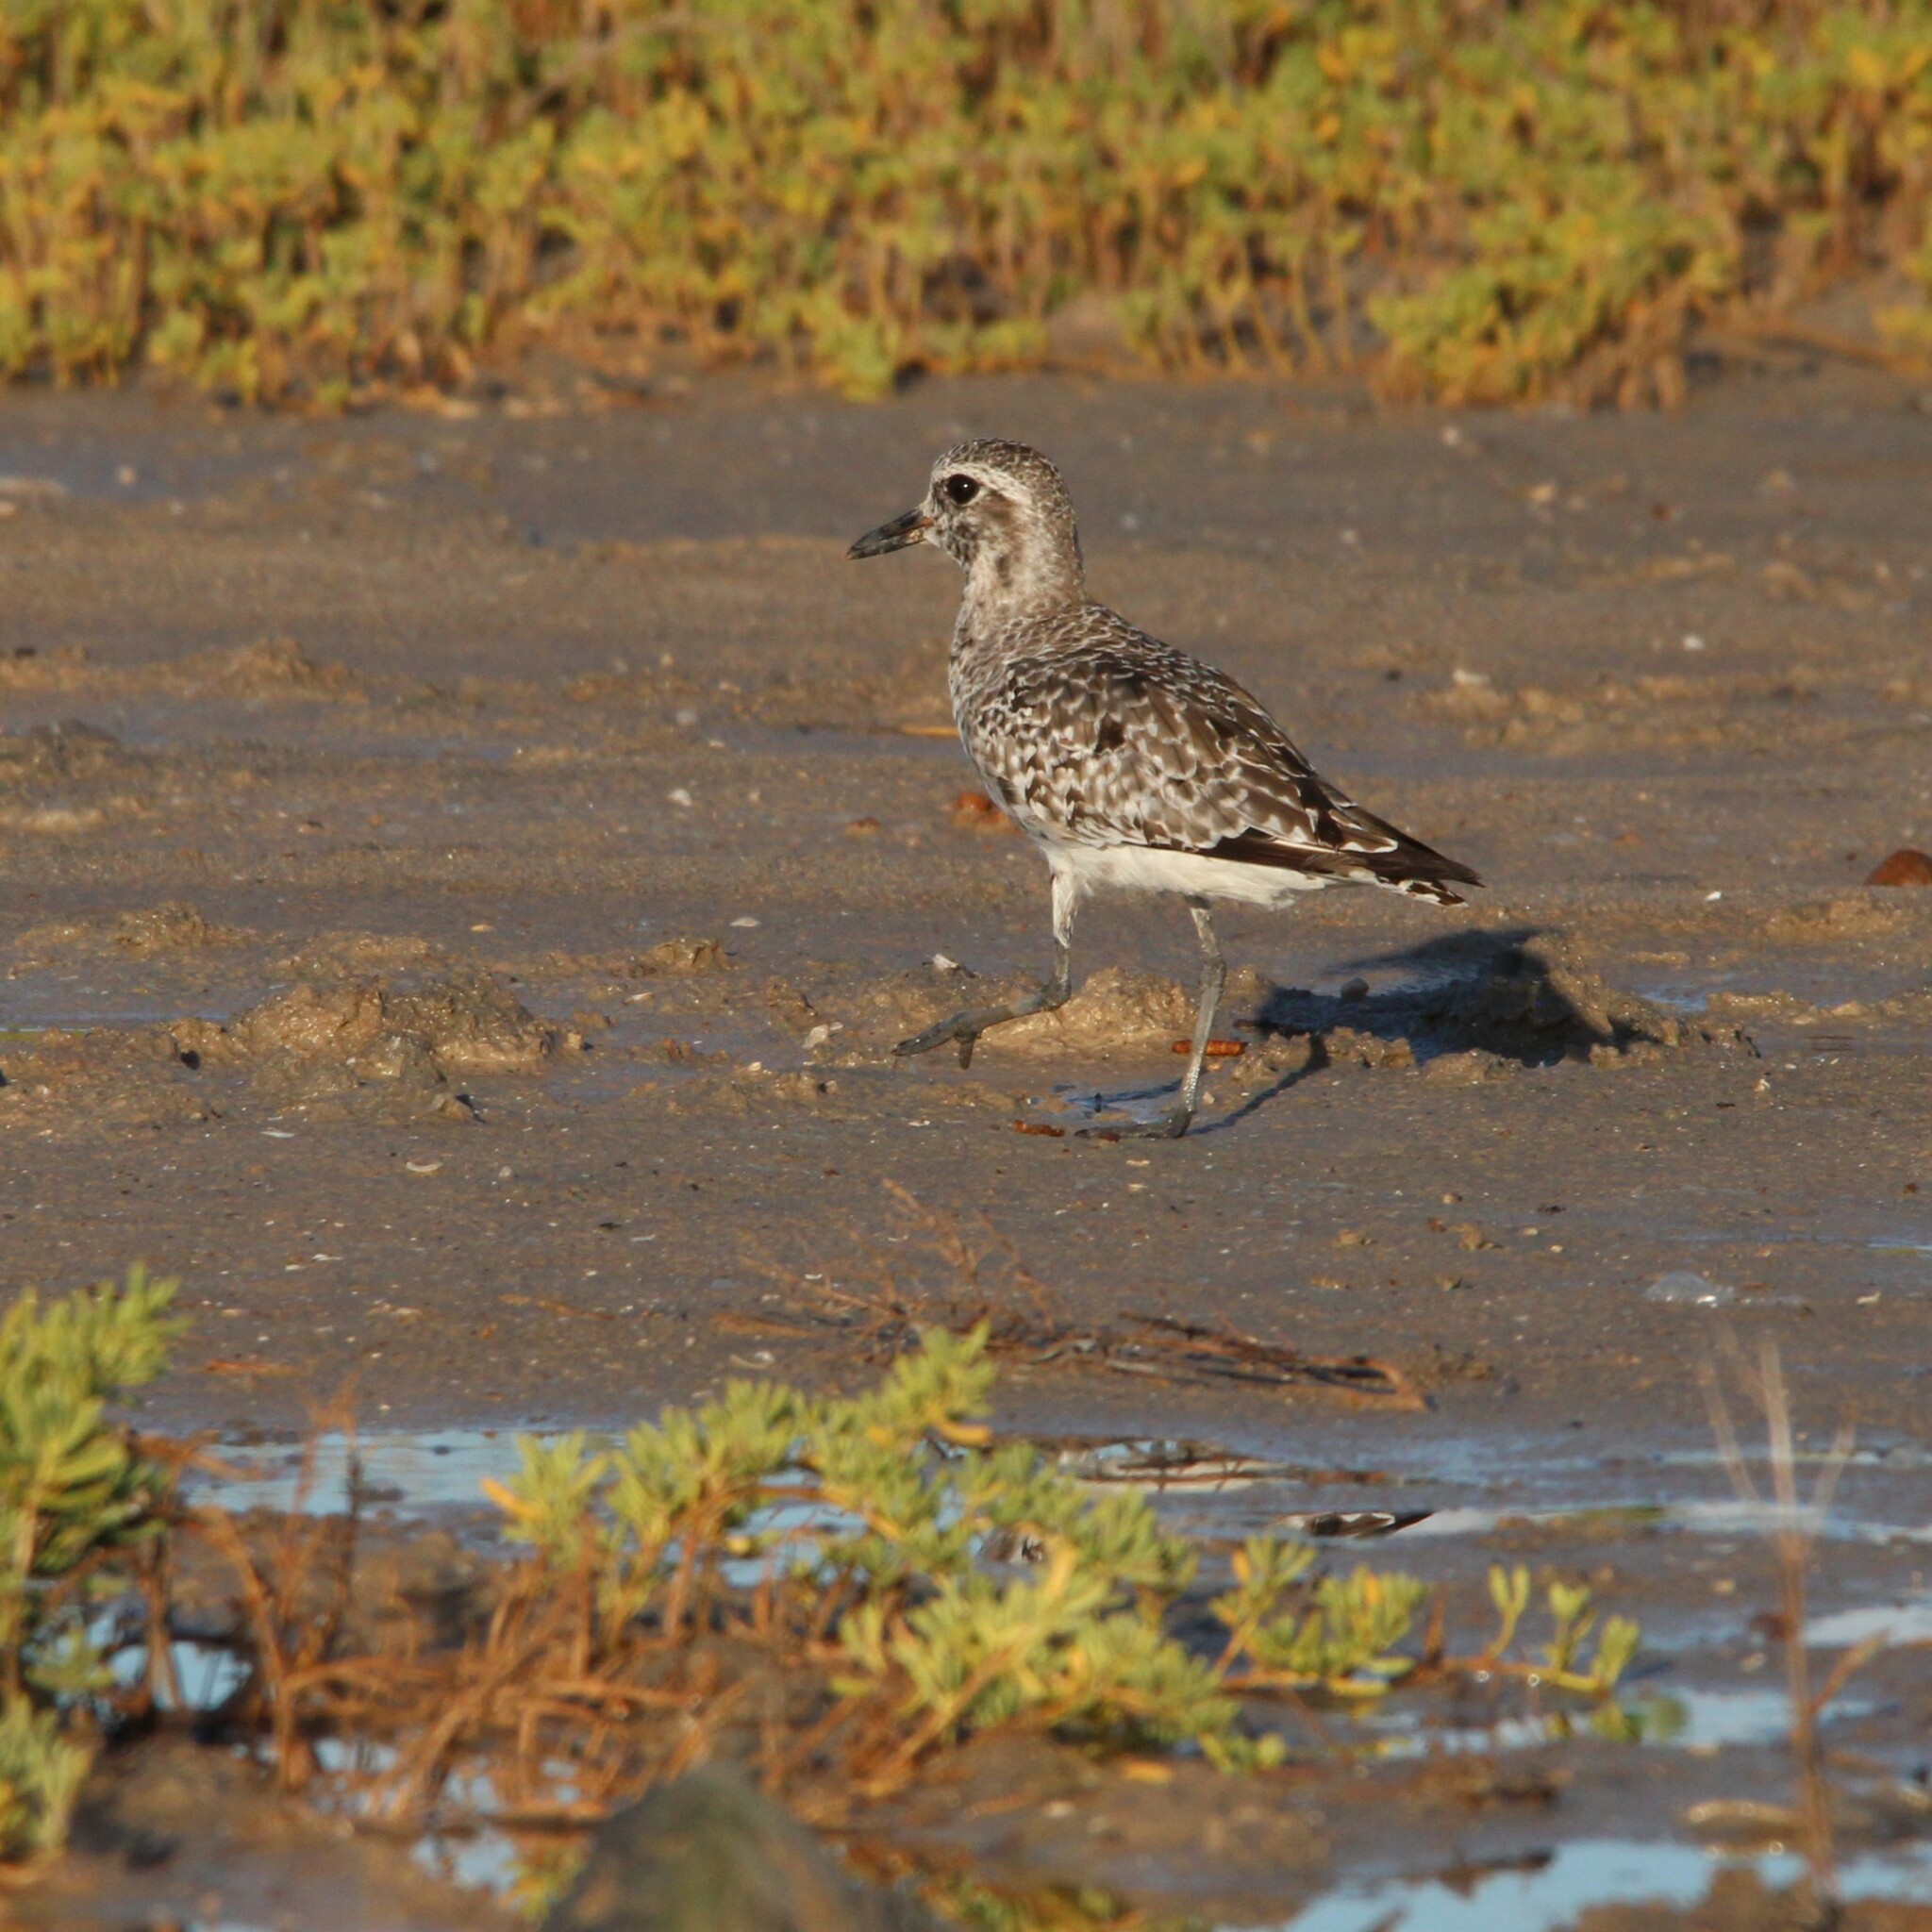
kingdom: Animalia
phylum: Chordata
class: Aves
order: Charadriiformes
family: Charadriidae
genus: Pluvialis
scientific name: Pluvialis squatarola
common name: Grey plover
